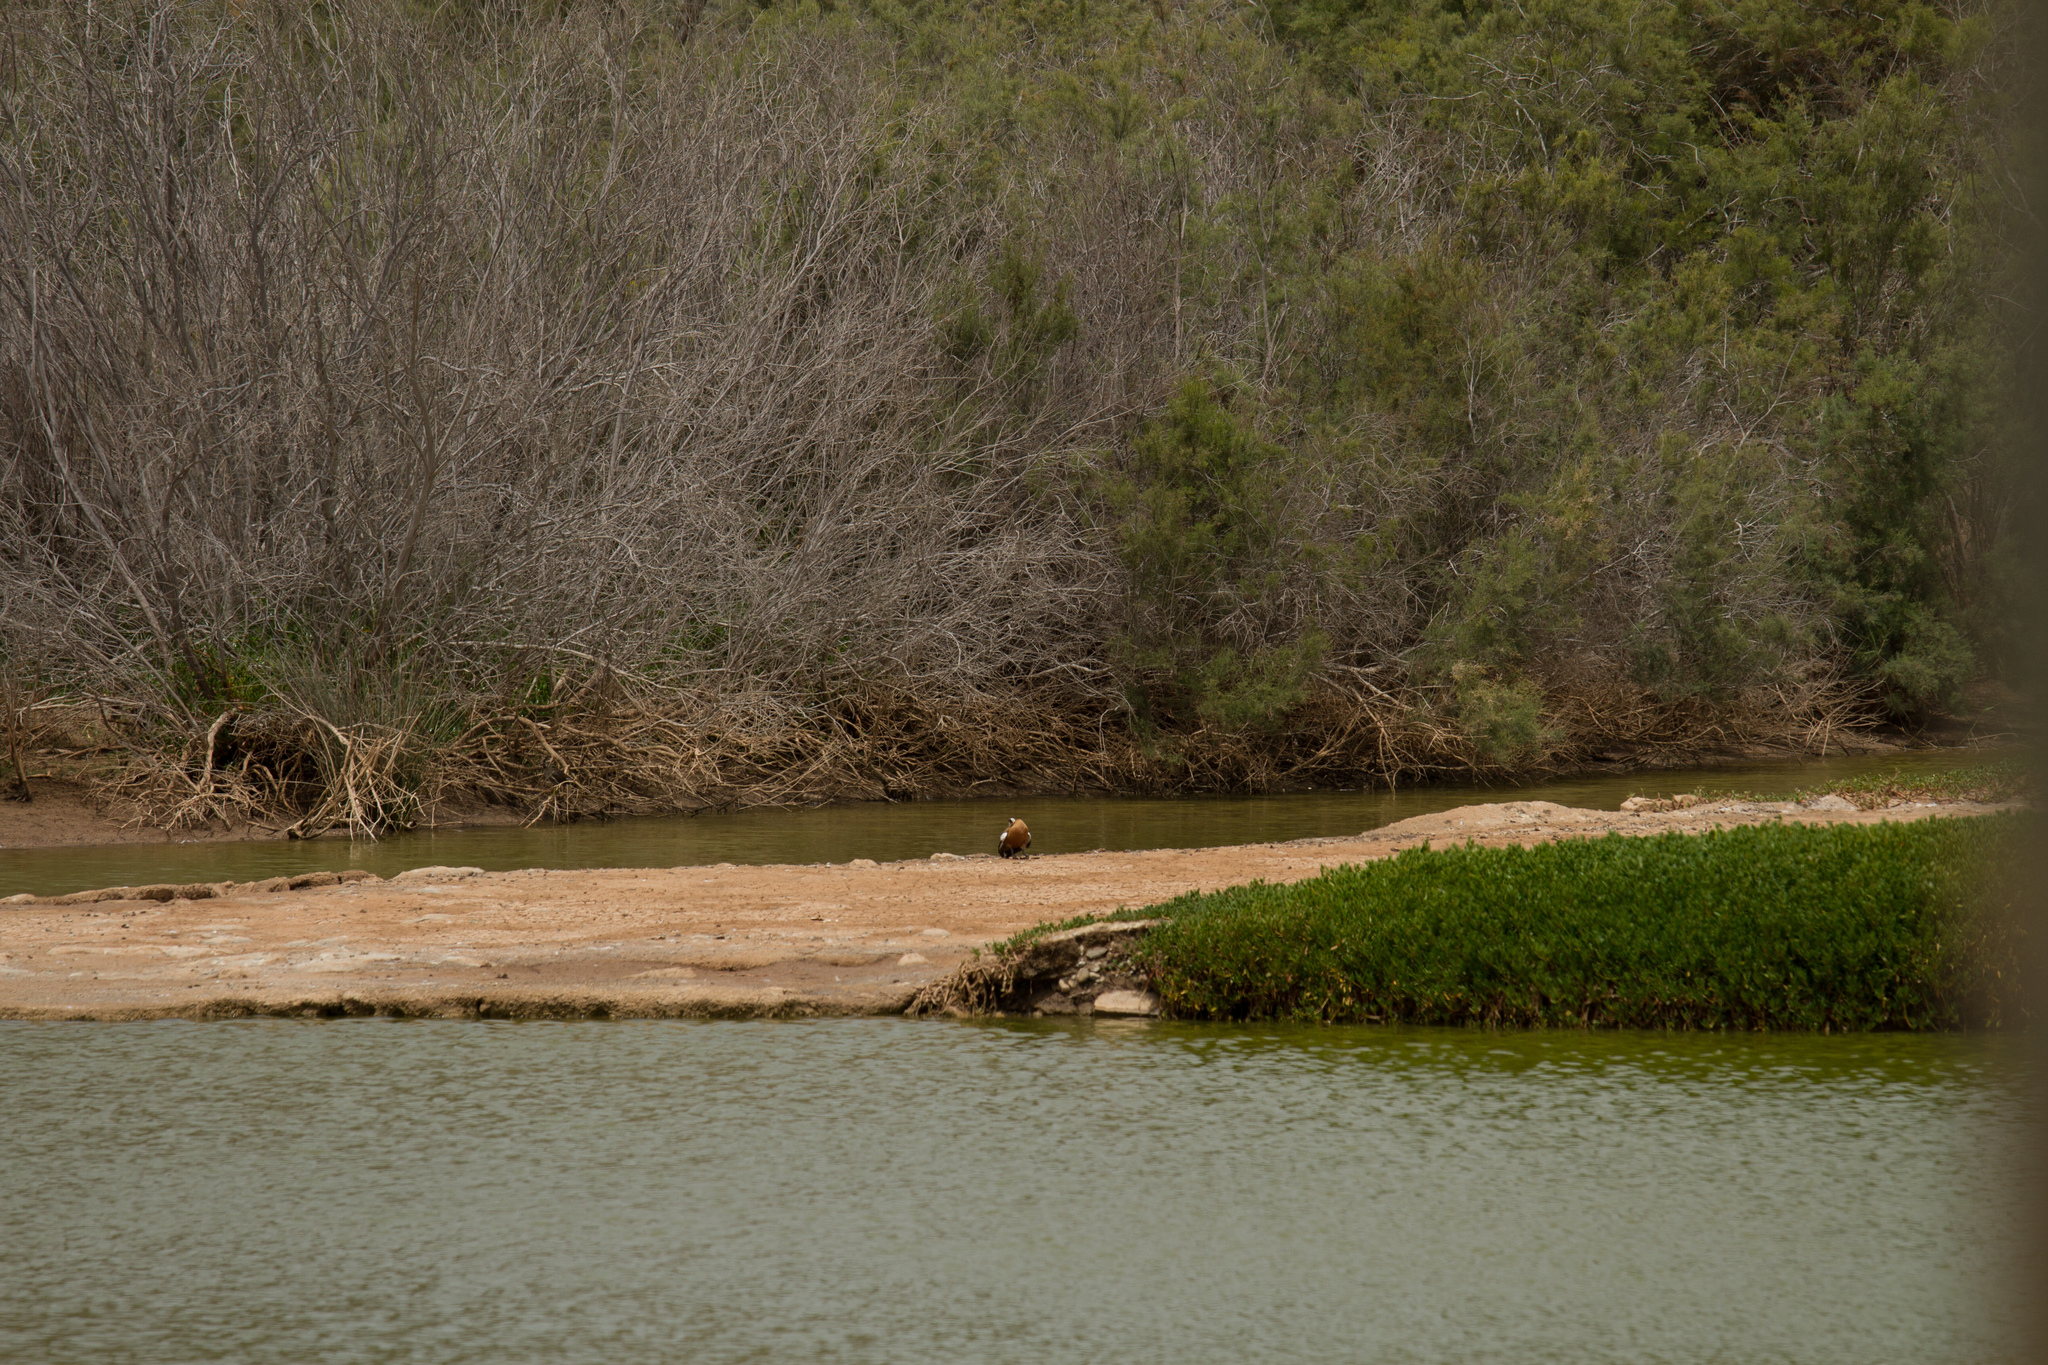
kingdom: Animalia
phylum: Chordata
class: Aves
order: Anseriformes
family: Anatidae
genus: Tadorna
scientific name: Tadorna ferruginea
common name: Ruddy shelduck
